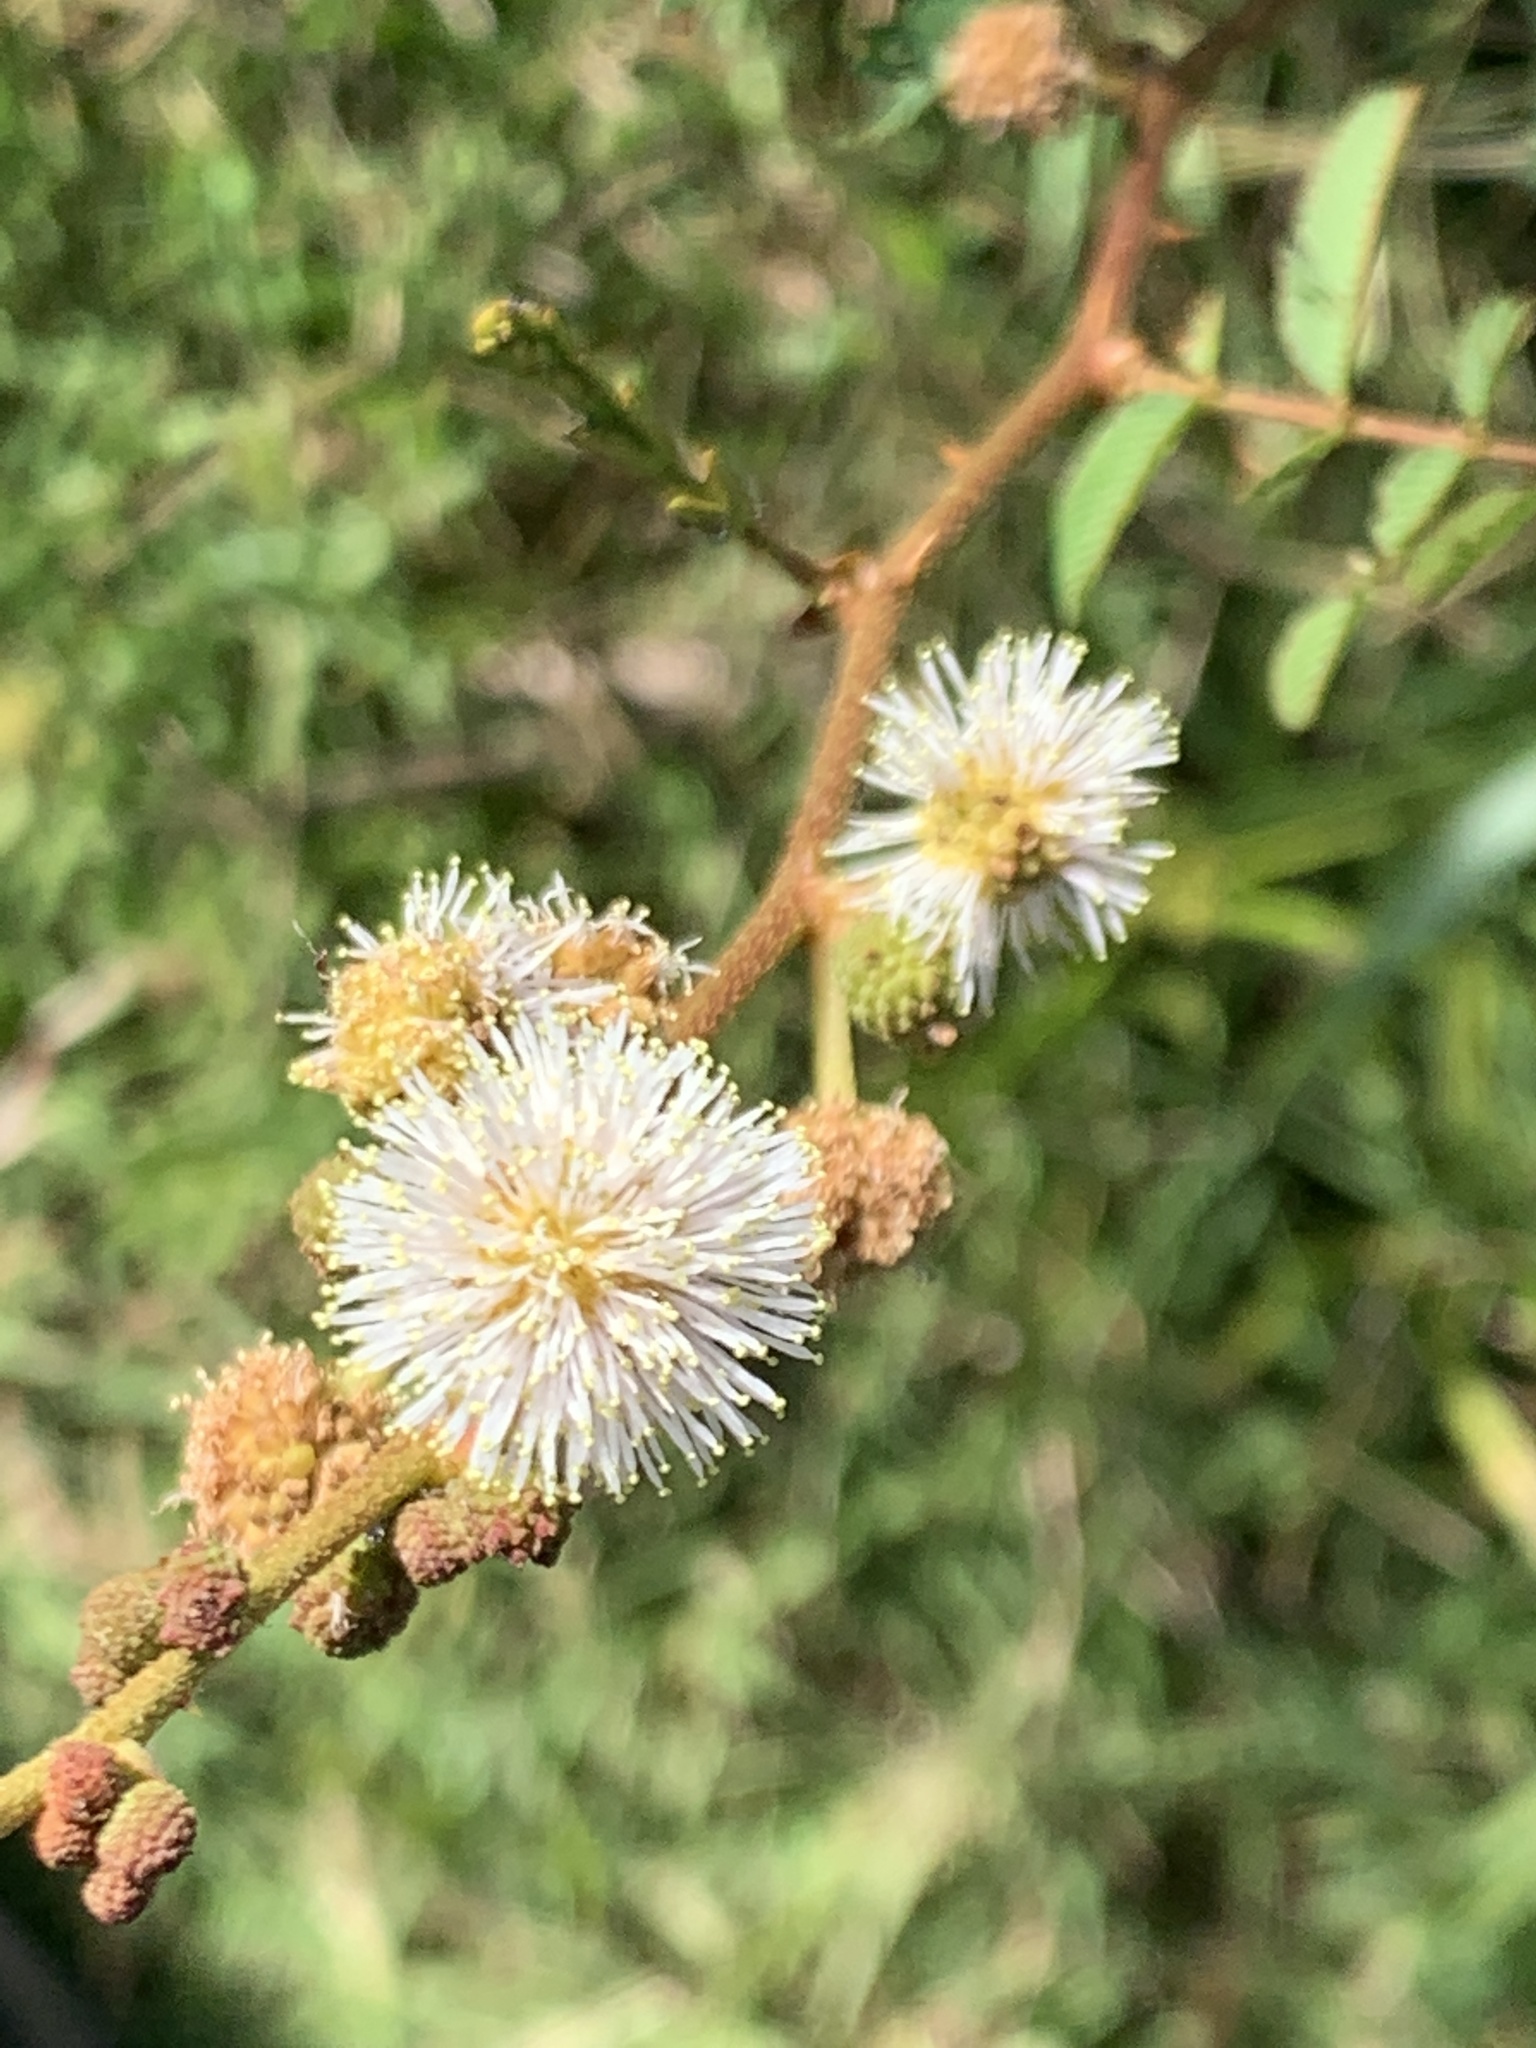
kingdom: Plantae
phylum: Tracheophyta
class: Magnoliopsida
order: Fabales
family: Fabaceae
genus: Mimosa
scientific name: Mimosa tweedieana
